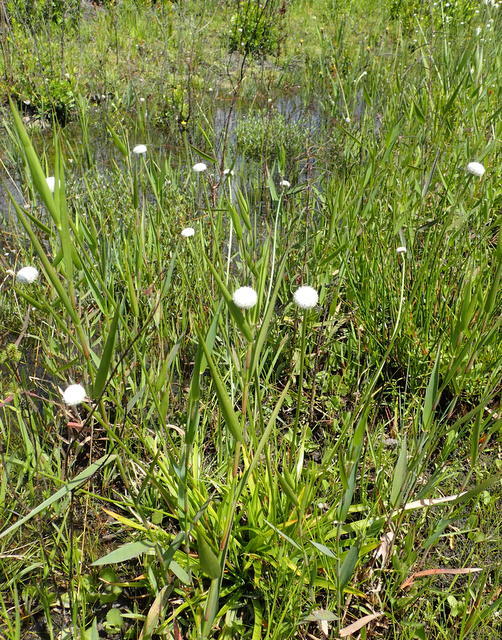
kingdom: Plantae
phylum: Tracheophyta
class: Liliopsida
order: Poales
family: Eriocaulaceae
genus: Eriocaulon
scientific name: Eriocaulon decangulare
